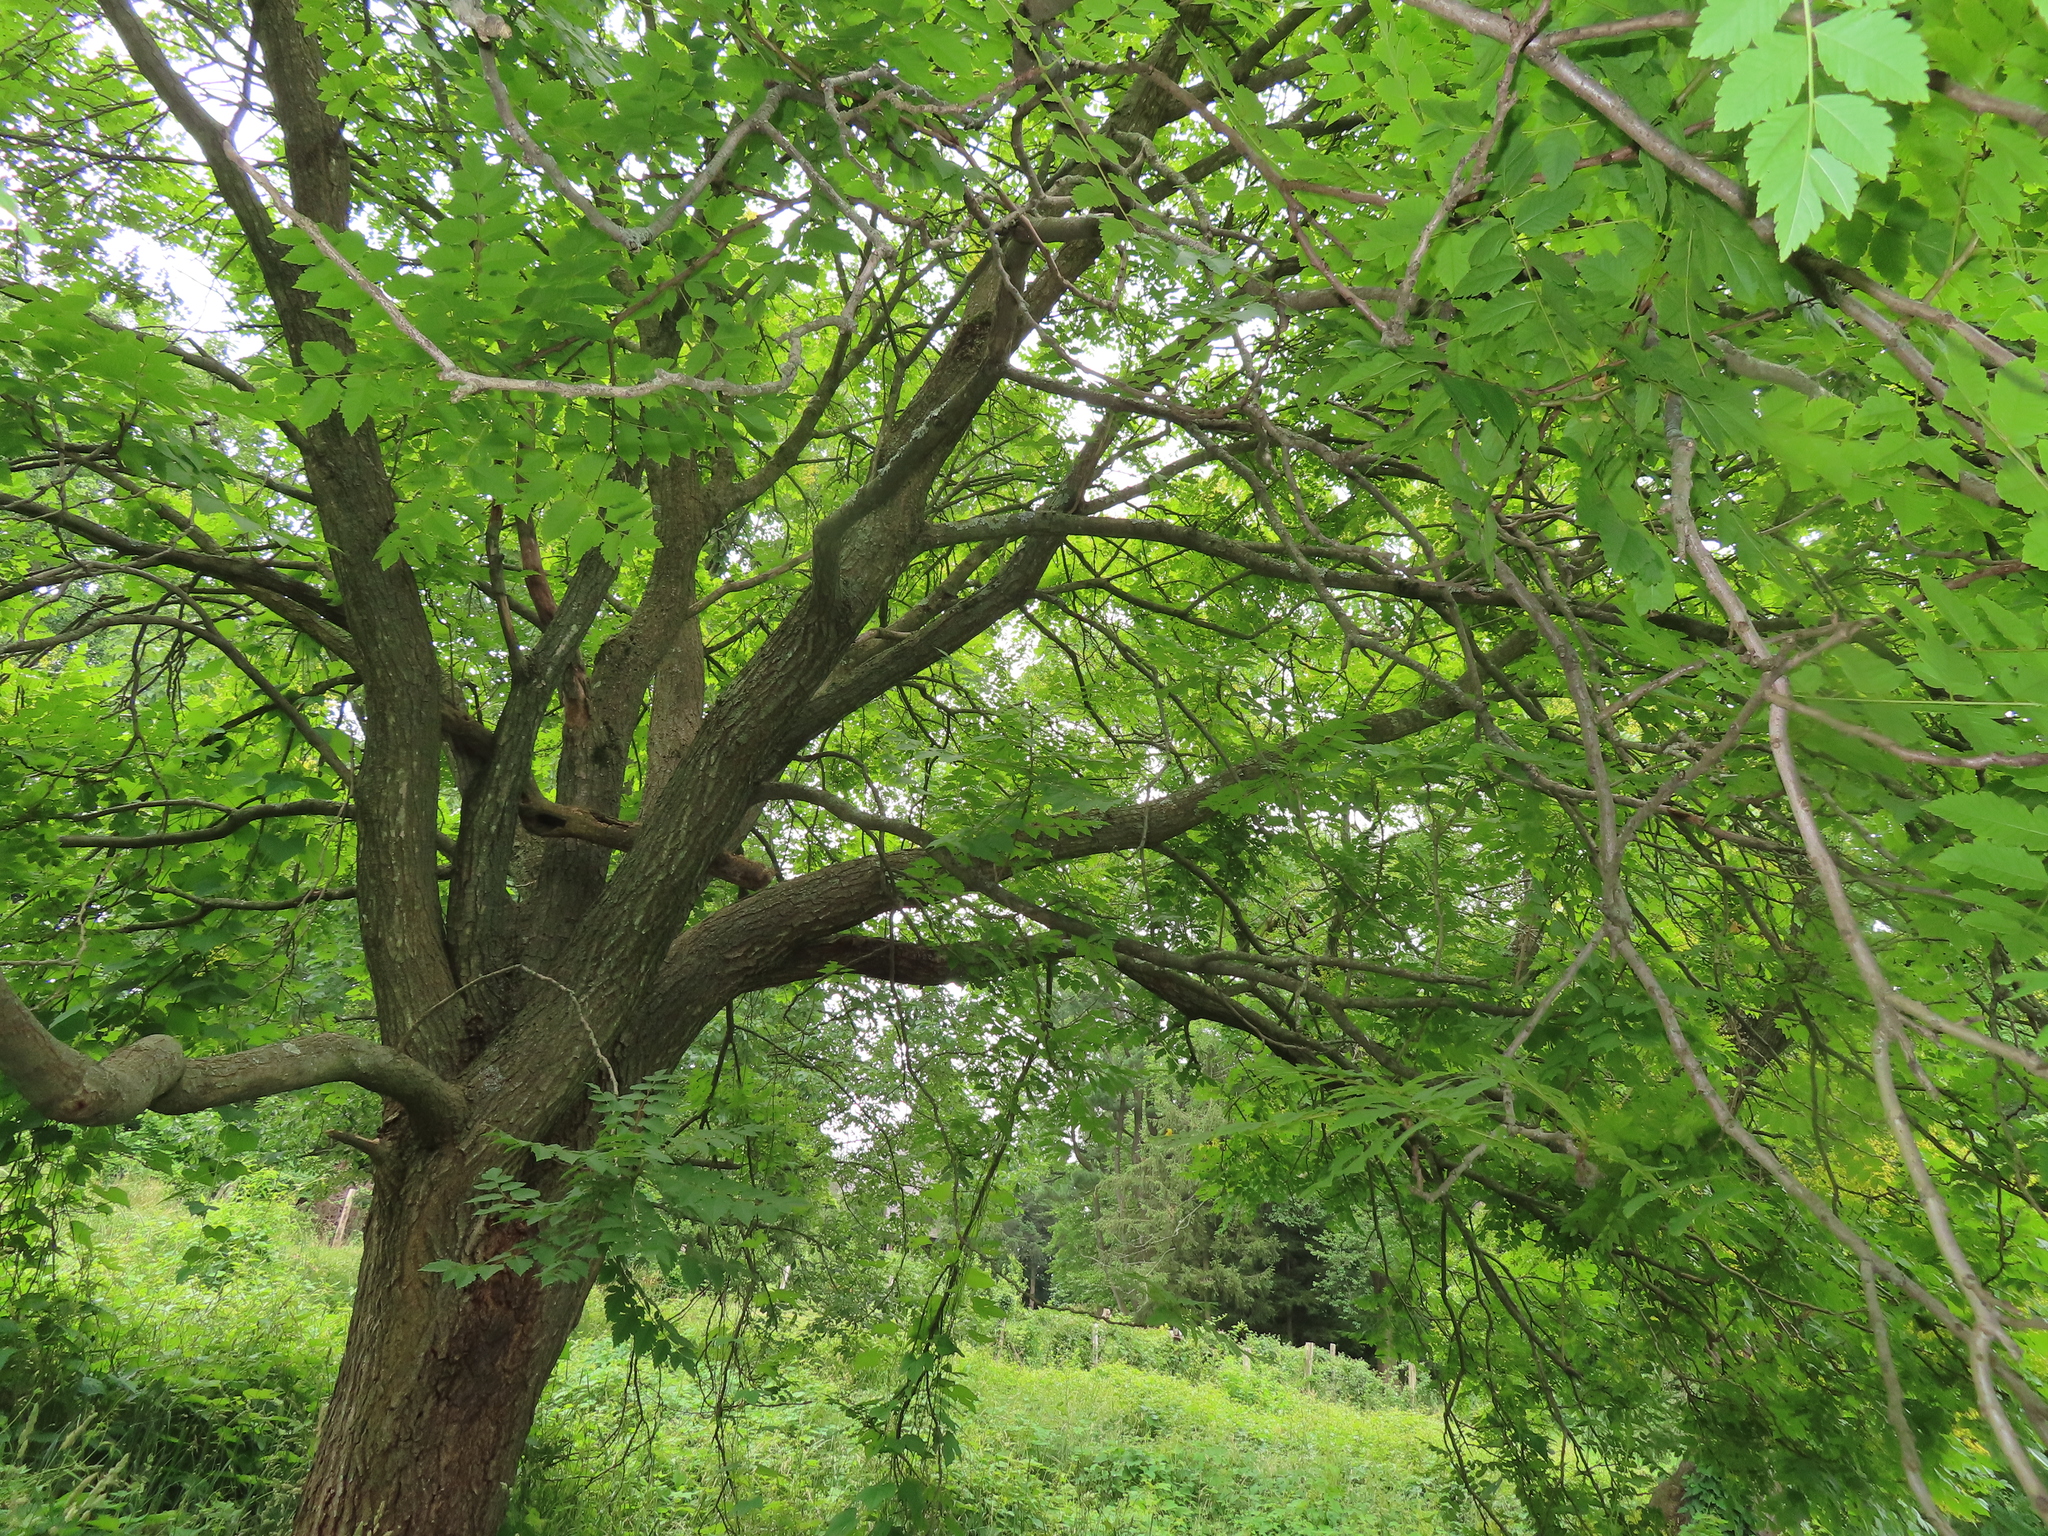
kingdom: Plantae
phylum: Tracheophyta
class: Magnoliopsida
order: Sapindales
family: Sapindaceae
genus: Koelreuteria
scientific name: Koelreuteria paniculata
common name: Pride-of-india
